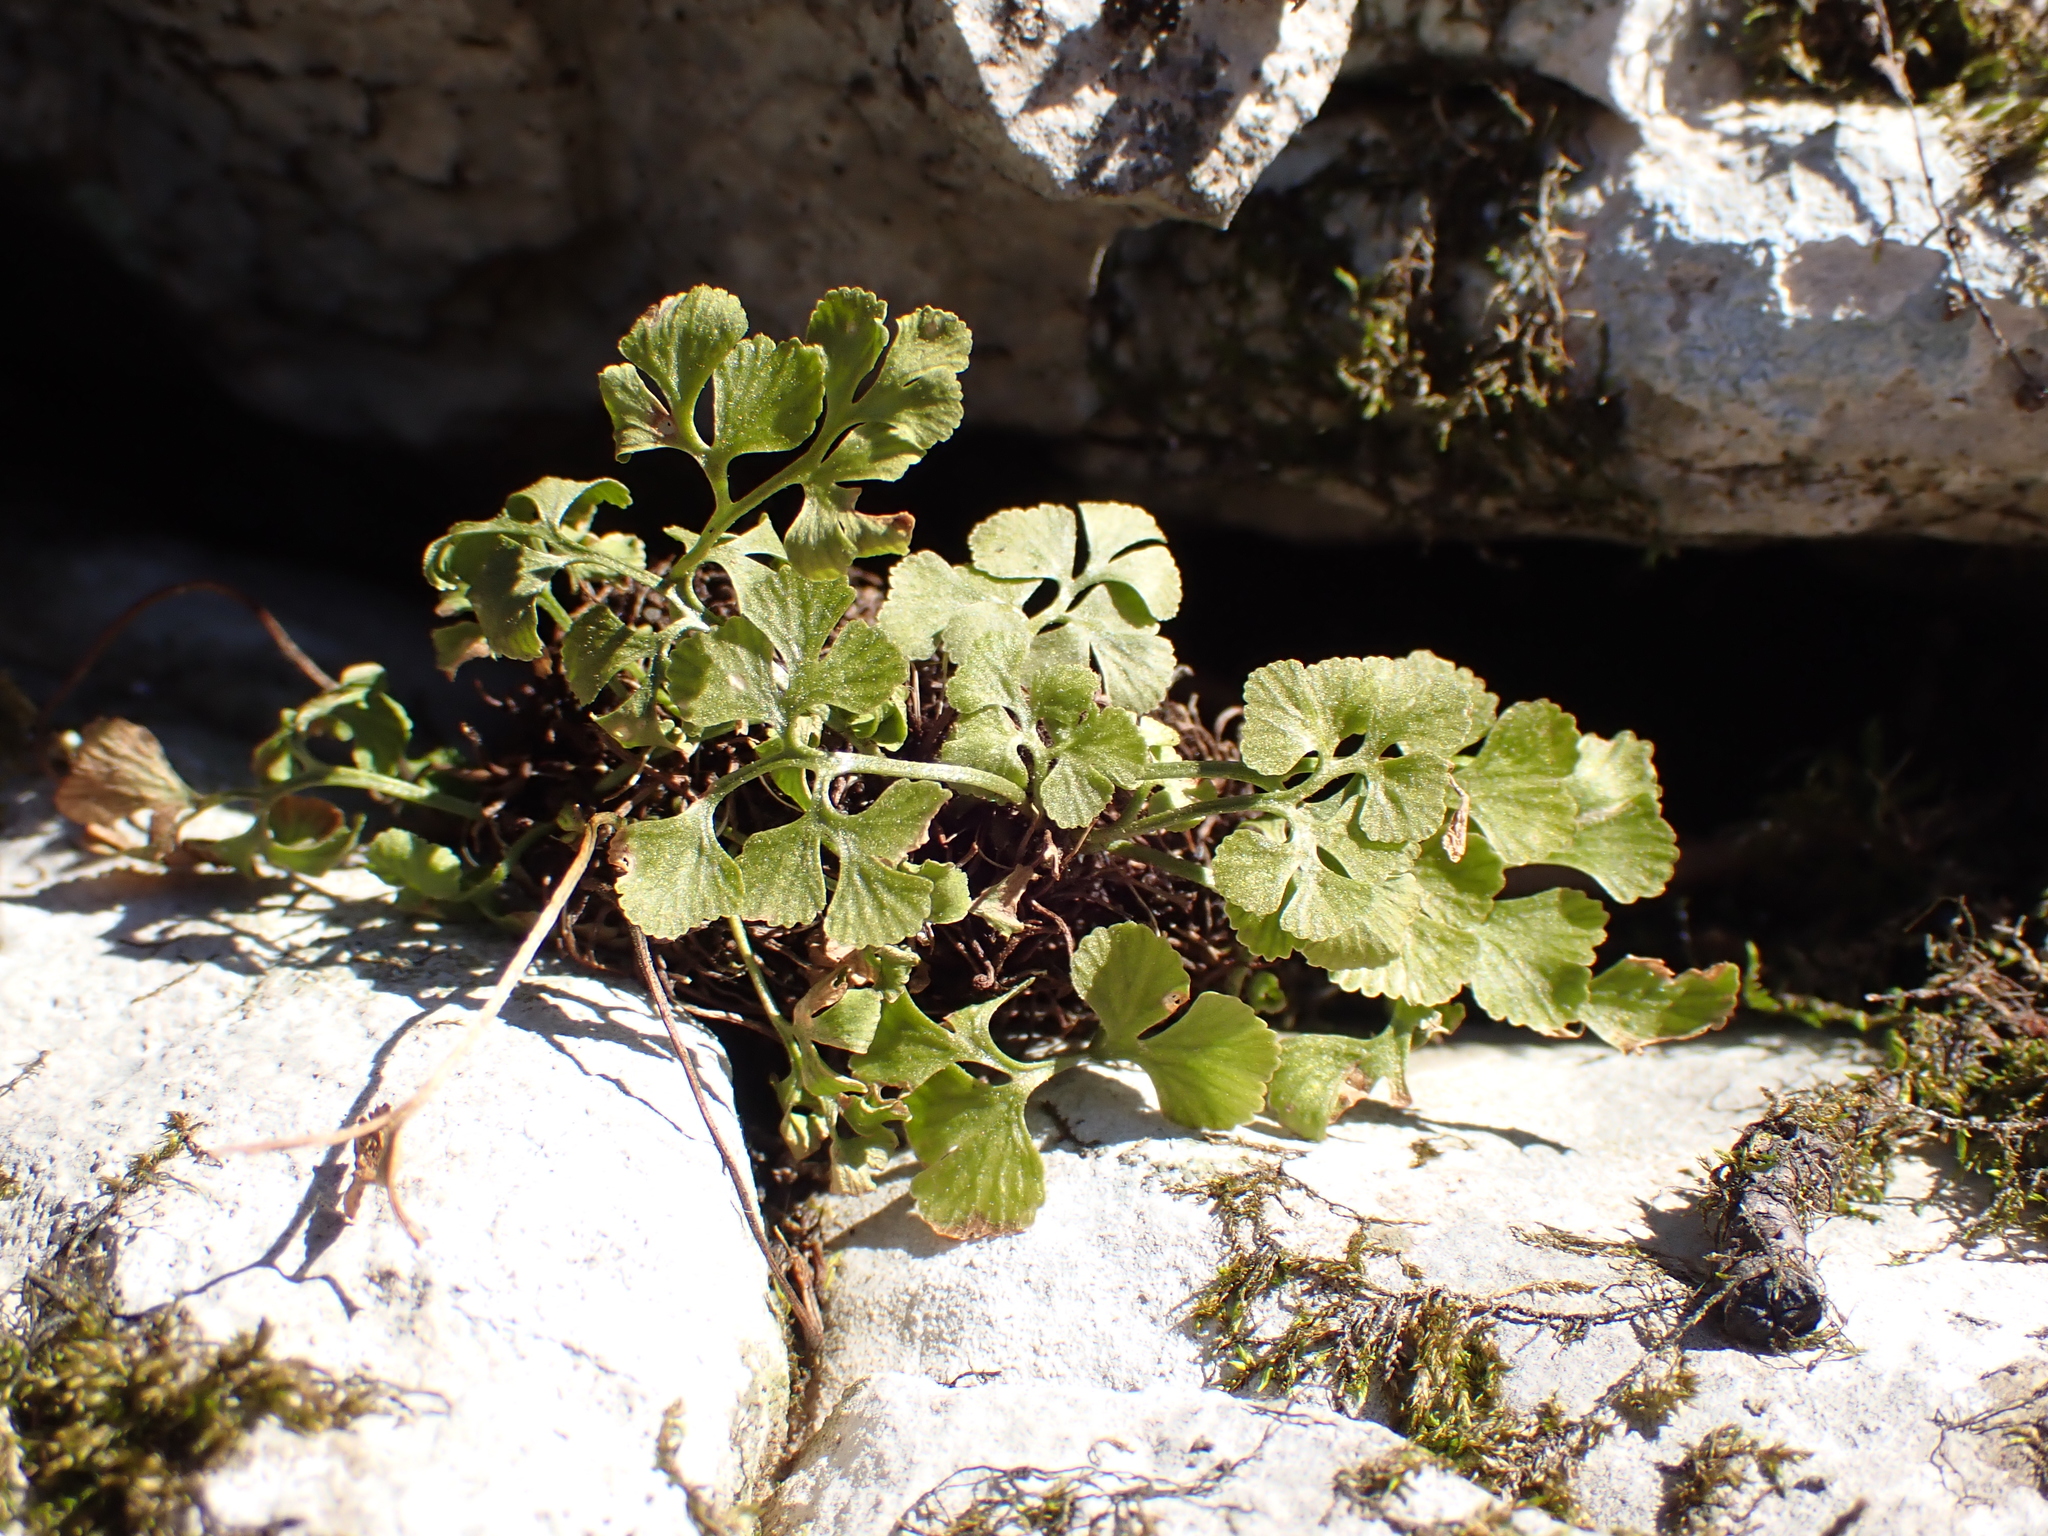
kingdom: Plantae
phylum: Tracheophyta
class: Polypodiopsida
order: Polypodiales
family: Aspleniaceae
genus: Asplenium
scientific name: Asplenium ruta-muraria
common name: Wall-rue
